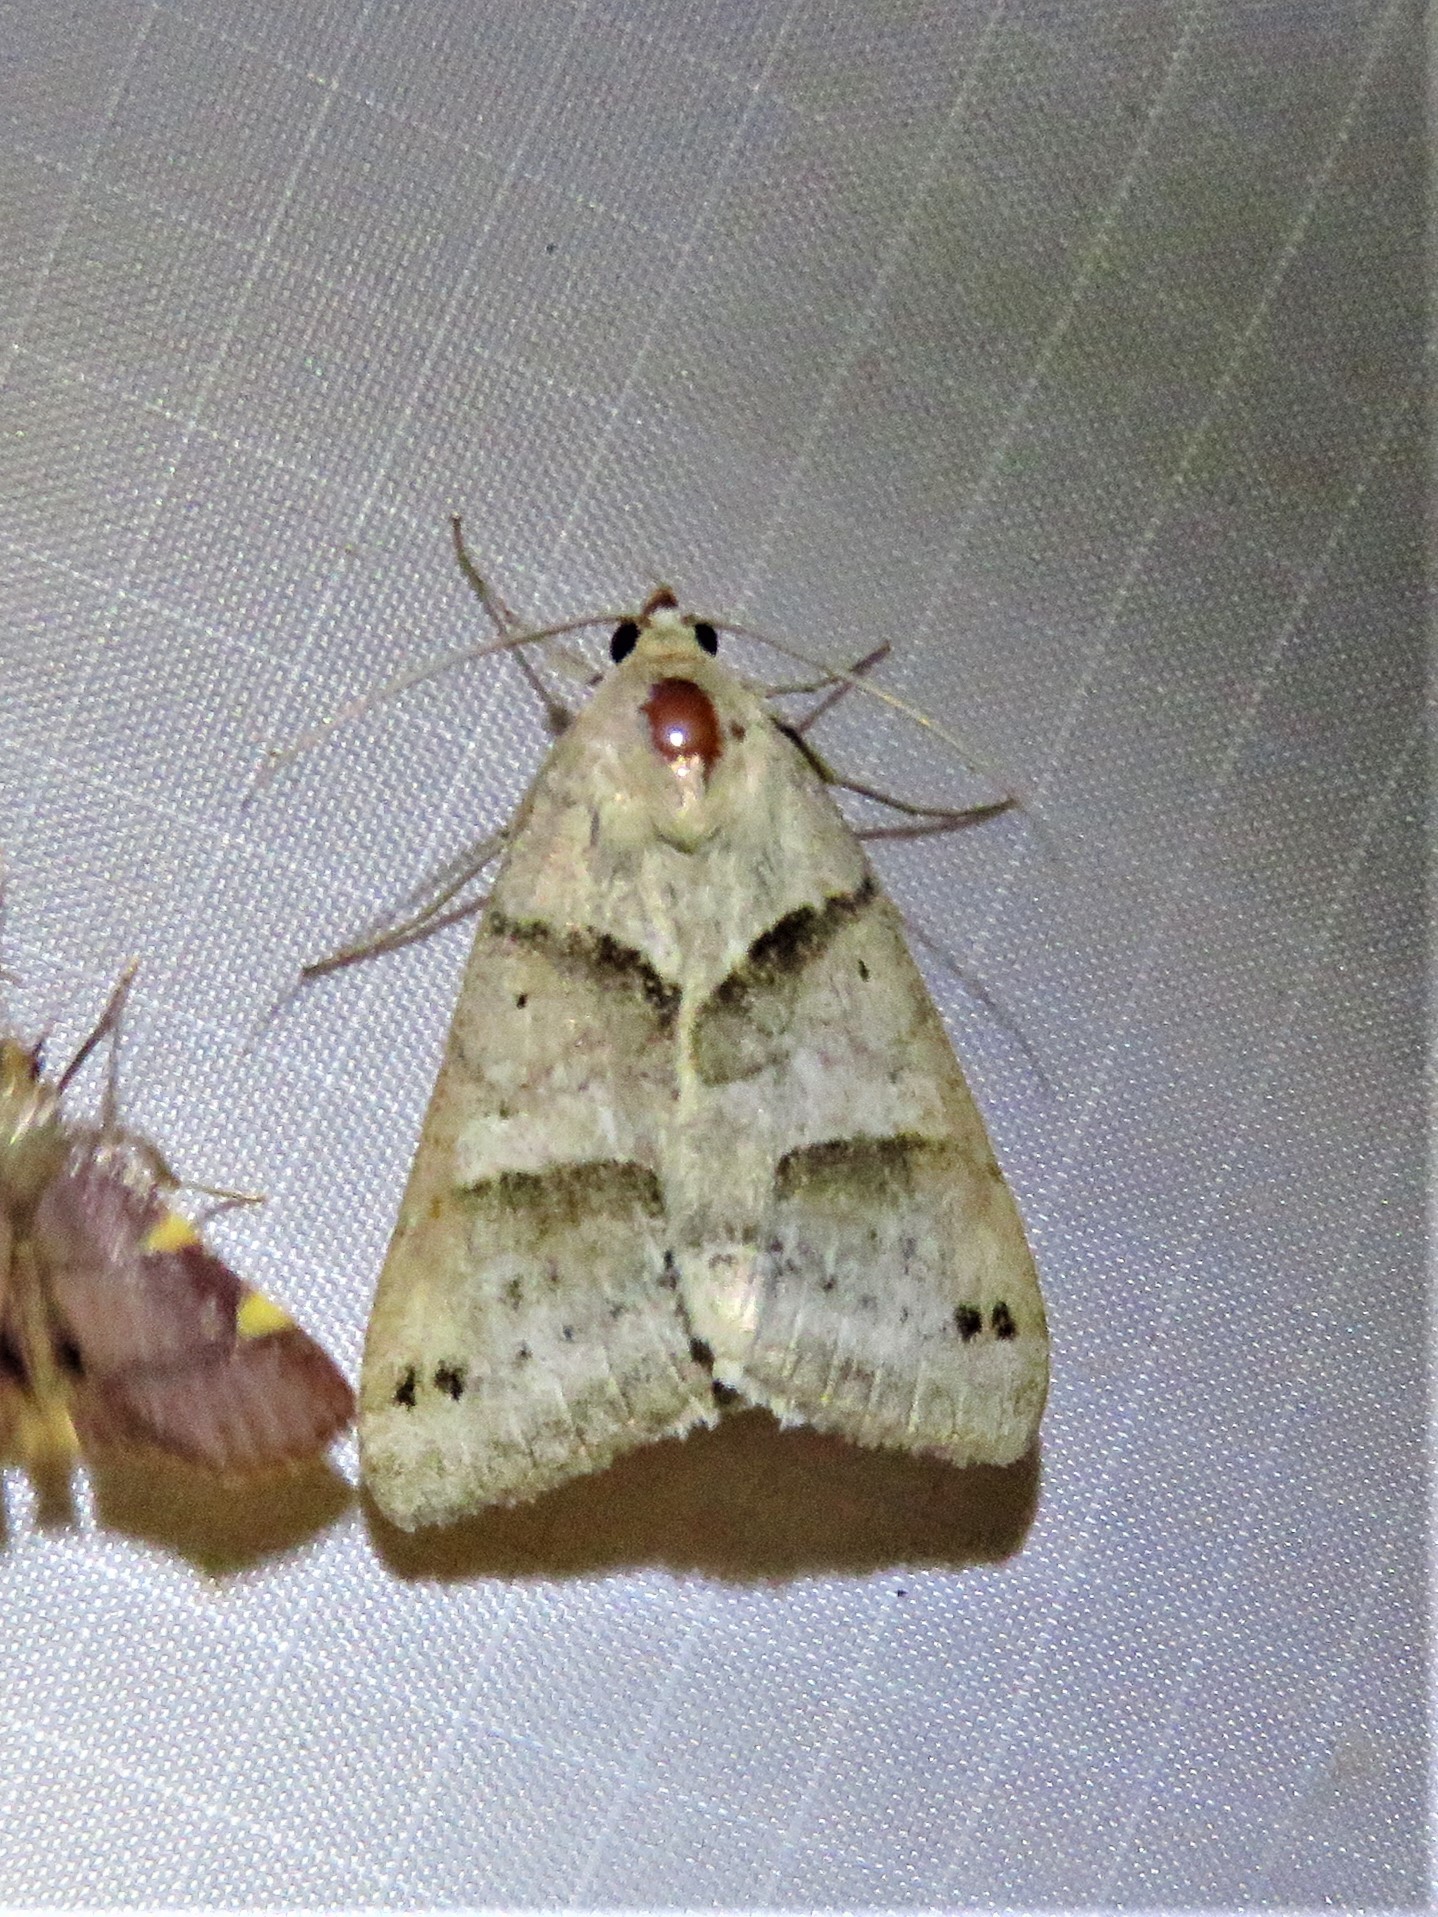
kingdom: Animalia
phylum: Arthropoda
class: Insecta
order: Lepidoptera
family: Erebidae
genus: Caenurgina
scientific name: Caenurgina erechtea
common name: Forage looper moth
